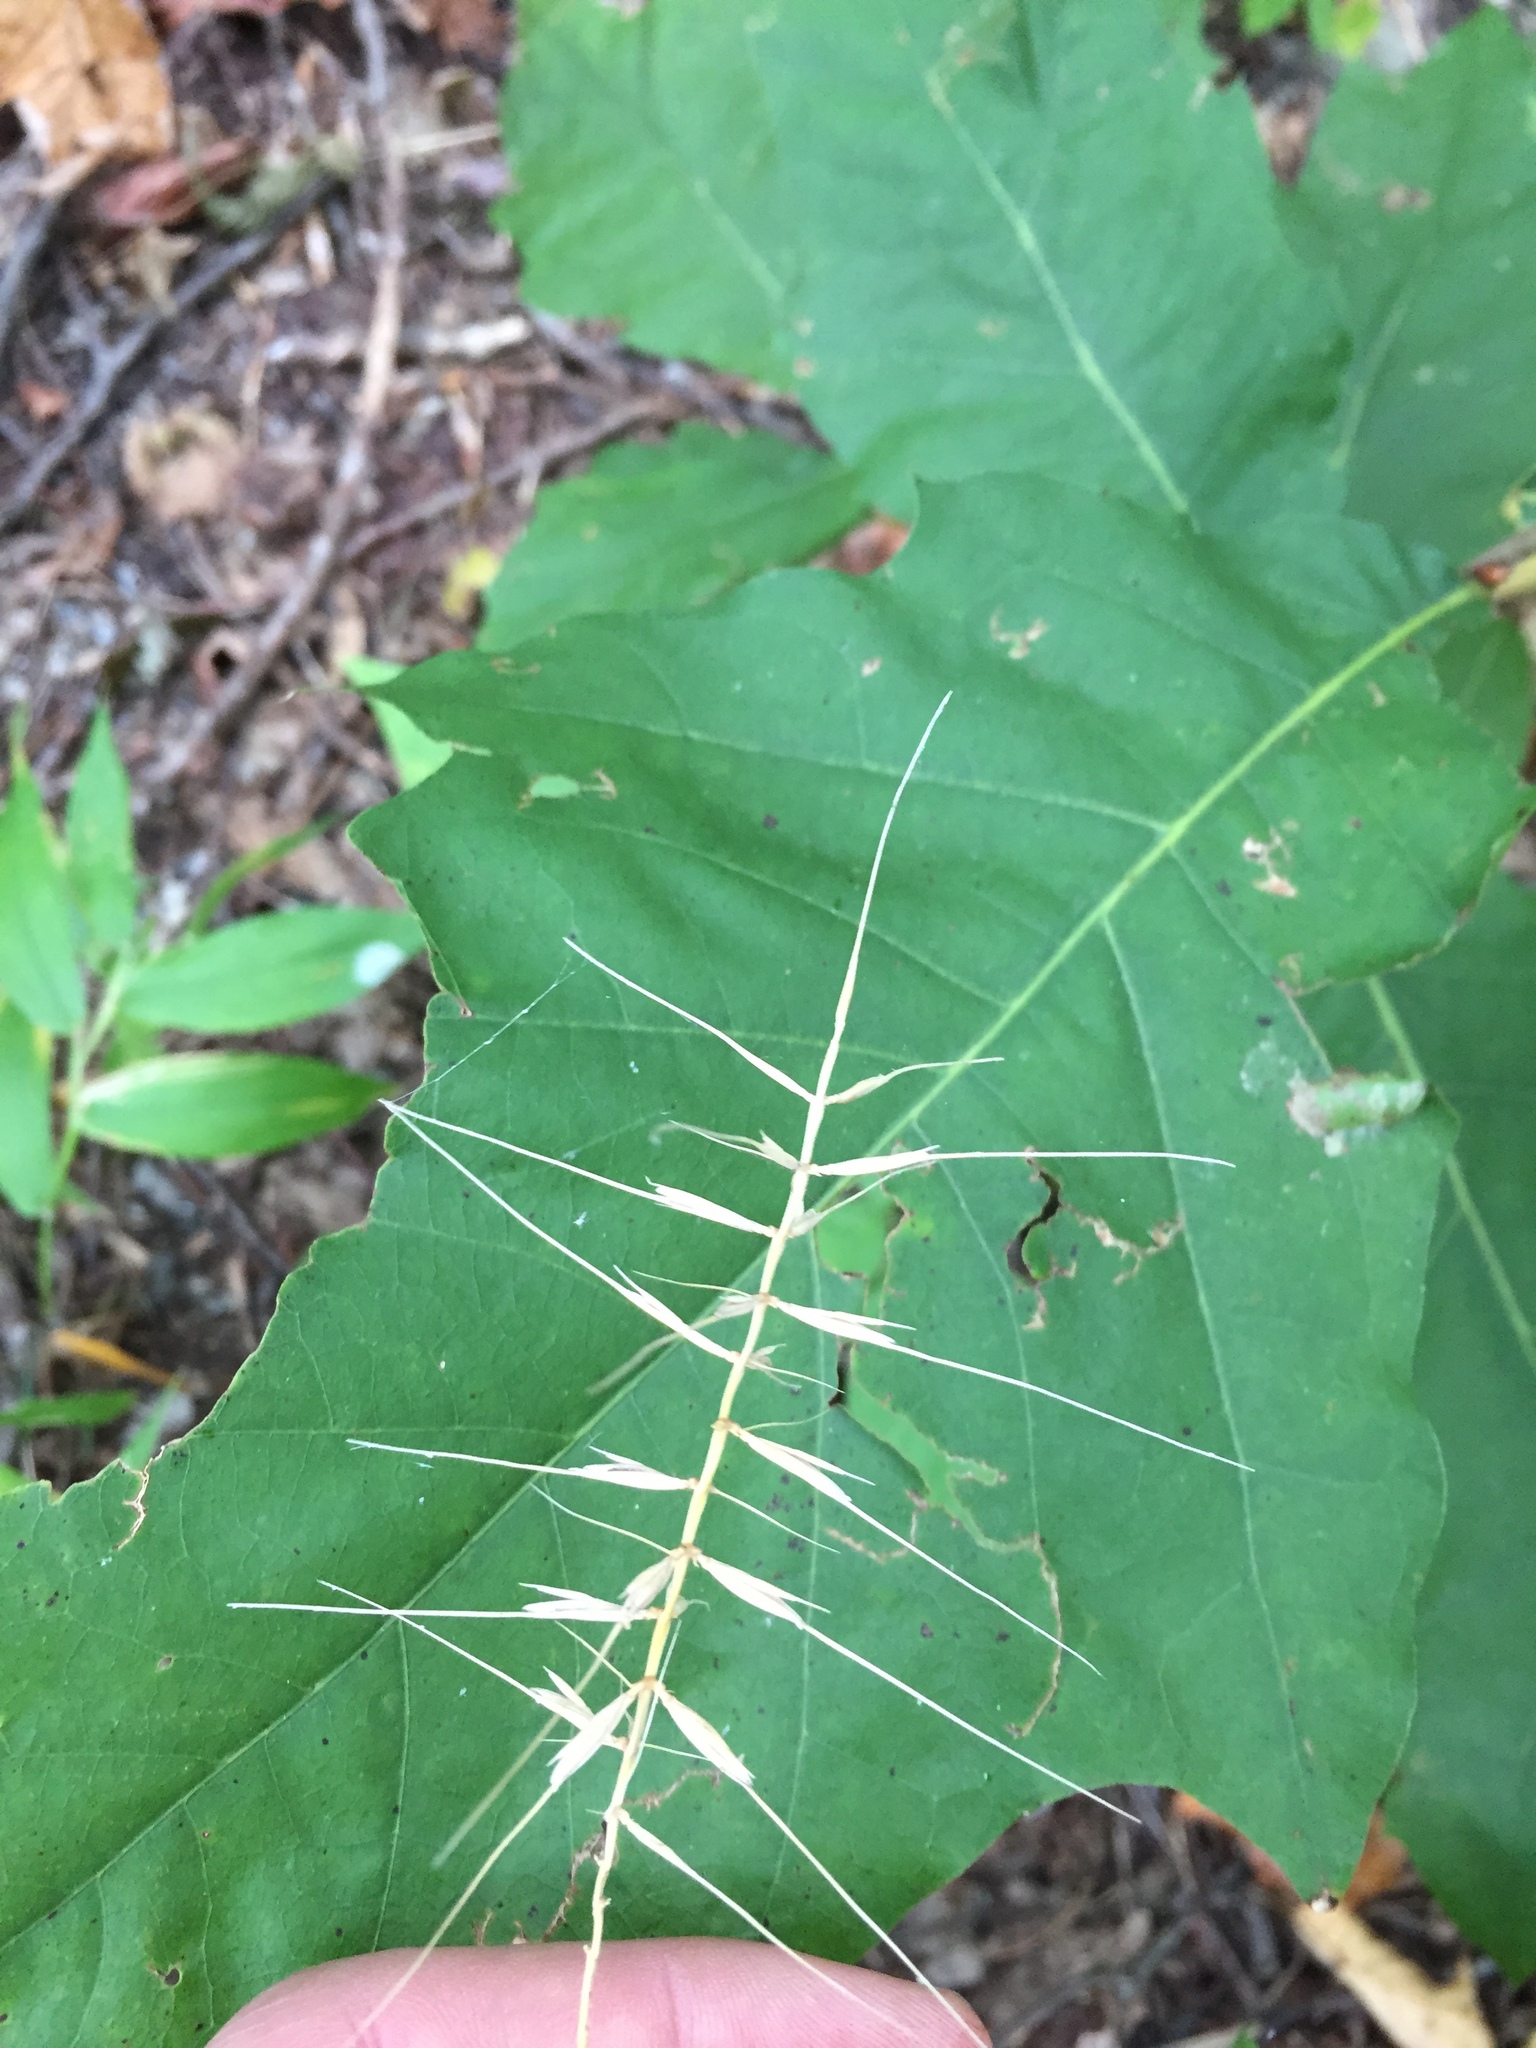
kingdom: Plantae
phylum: Tracheophyta
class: Liliopsida
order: Poales
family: Poaceae
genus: Elymus
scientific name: Elymus hystrix
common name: Bottlebrush grass
